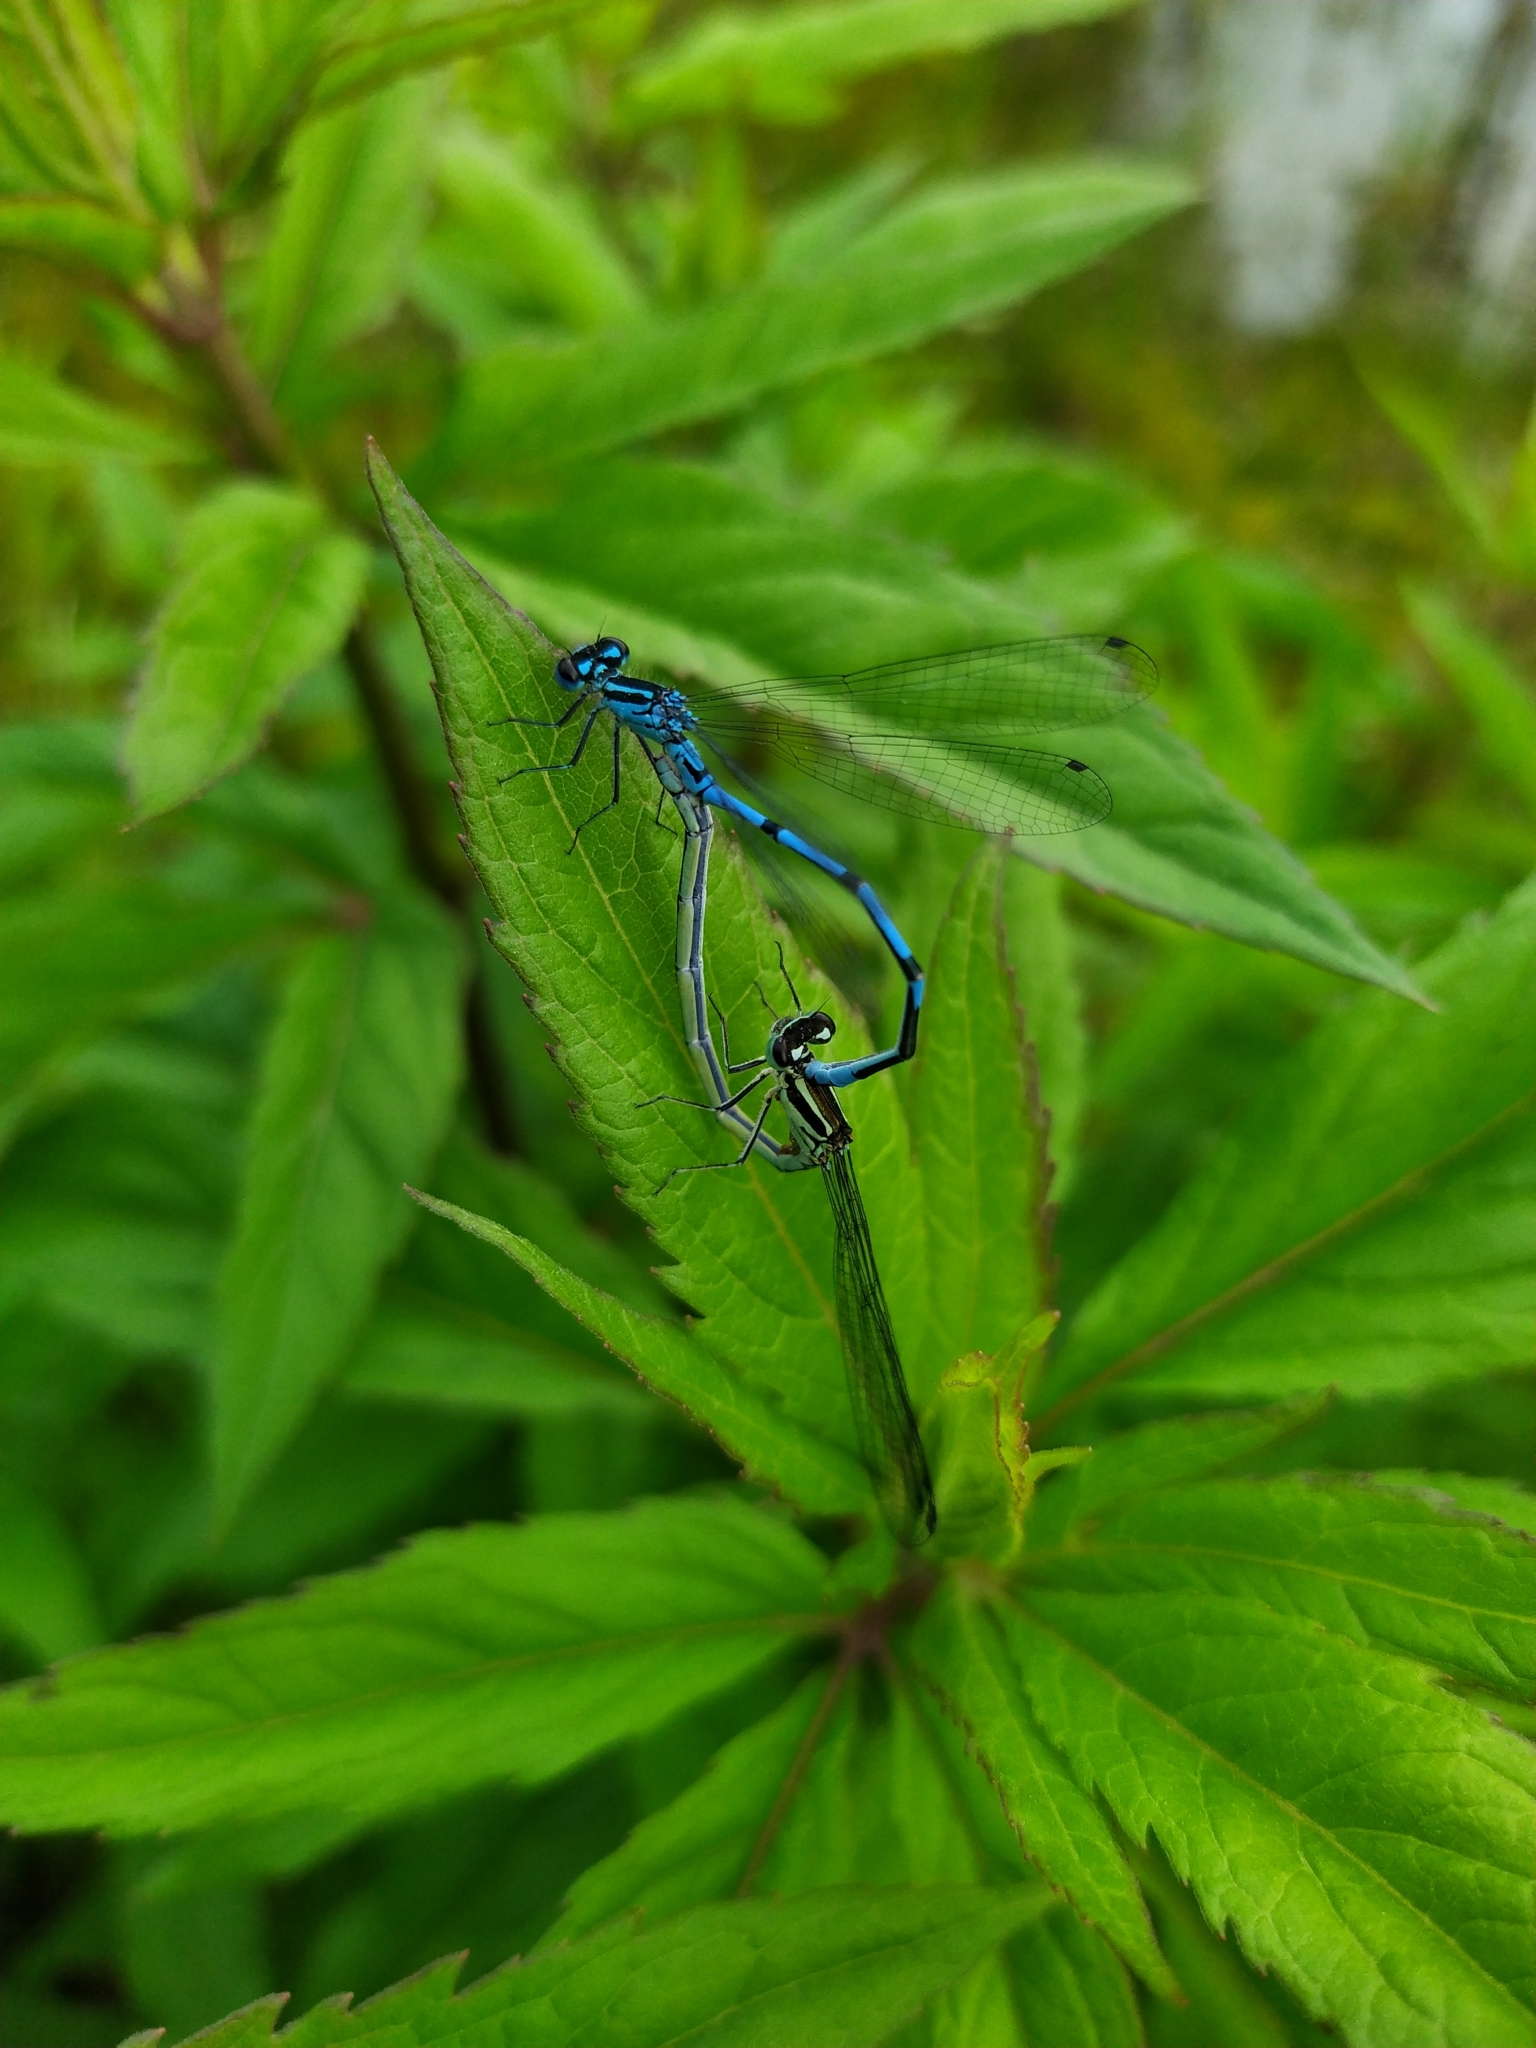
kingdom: Animalia
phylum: Arthropoda
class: Insecta
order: Odonata
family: Coenagrionidae
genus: Coenagrion
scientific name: Coenagrion puella
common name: Azure damselfly
